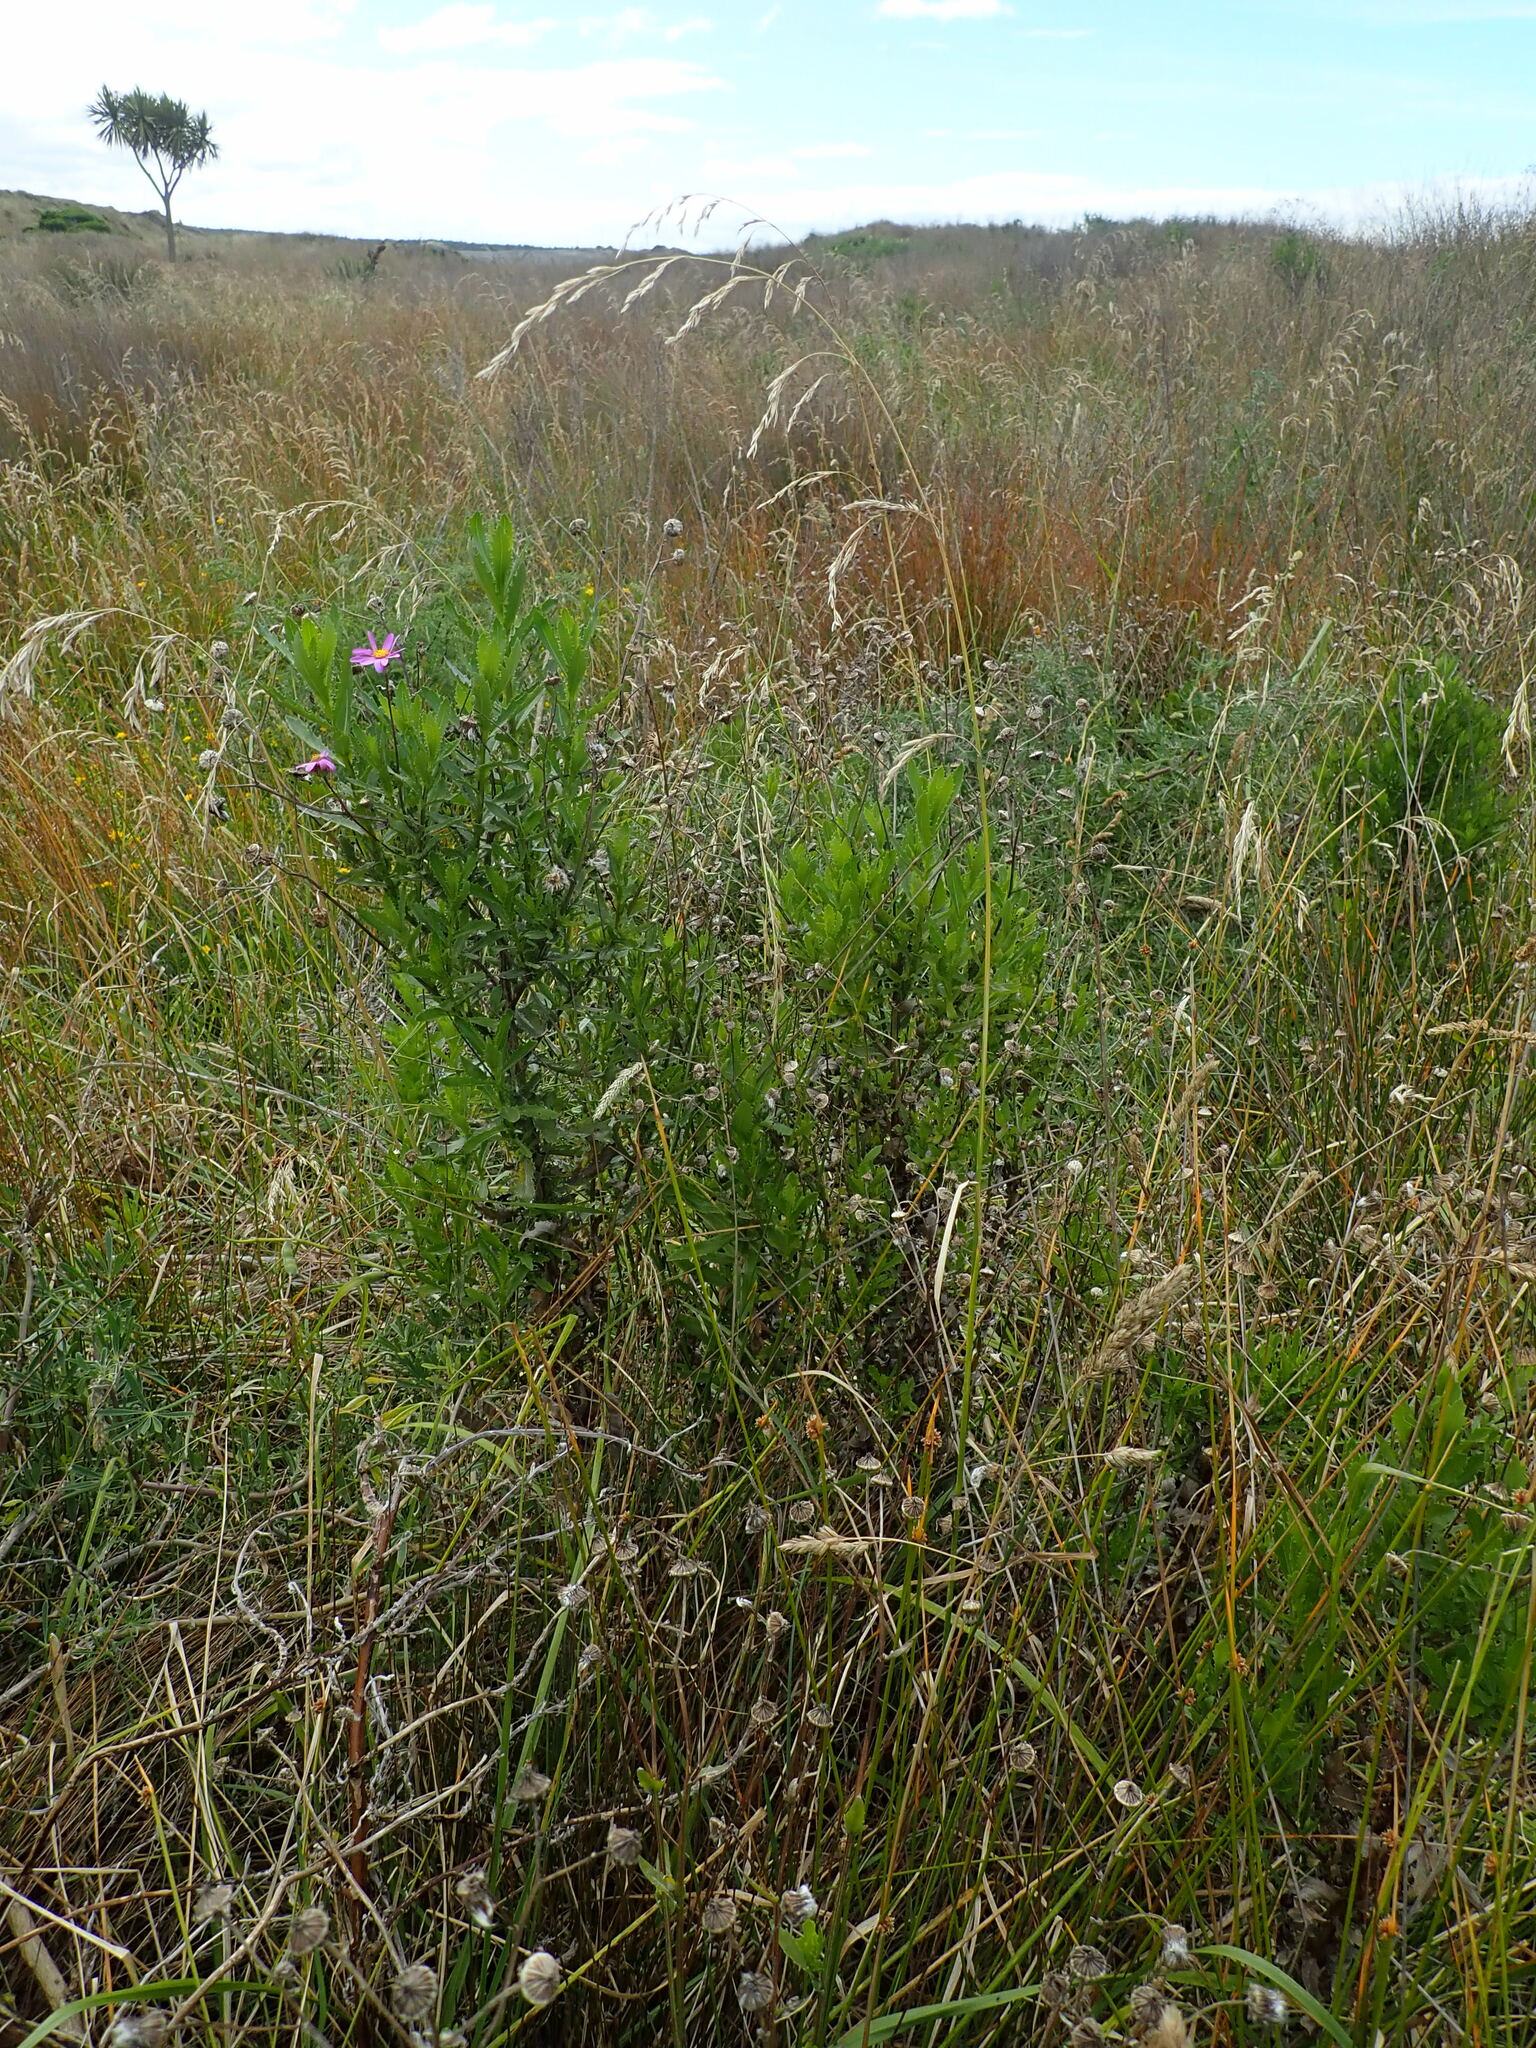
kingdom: Plantae
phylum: Tracheophyta
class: Magnoliopsida
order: Asterales
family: Asteraceae
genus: Senecio
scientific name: Senecio glastifolius
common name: Woad-leaved ragwort
